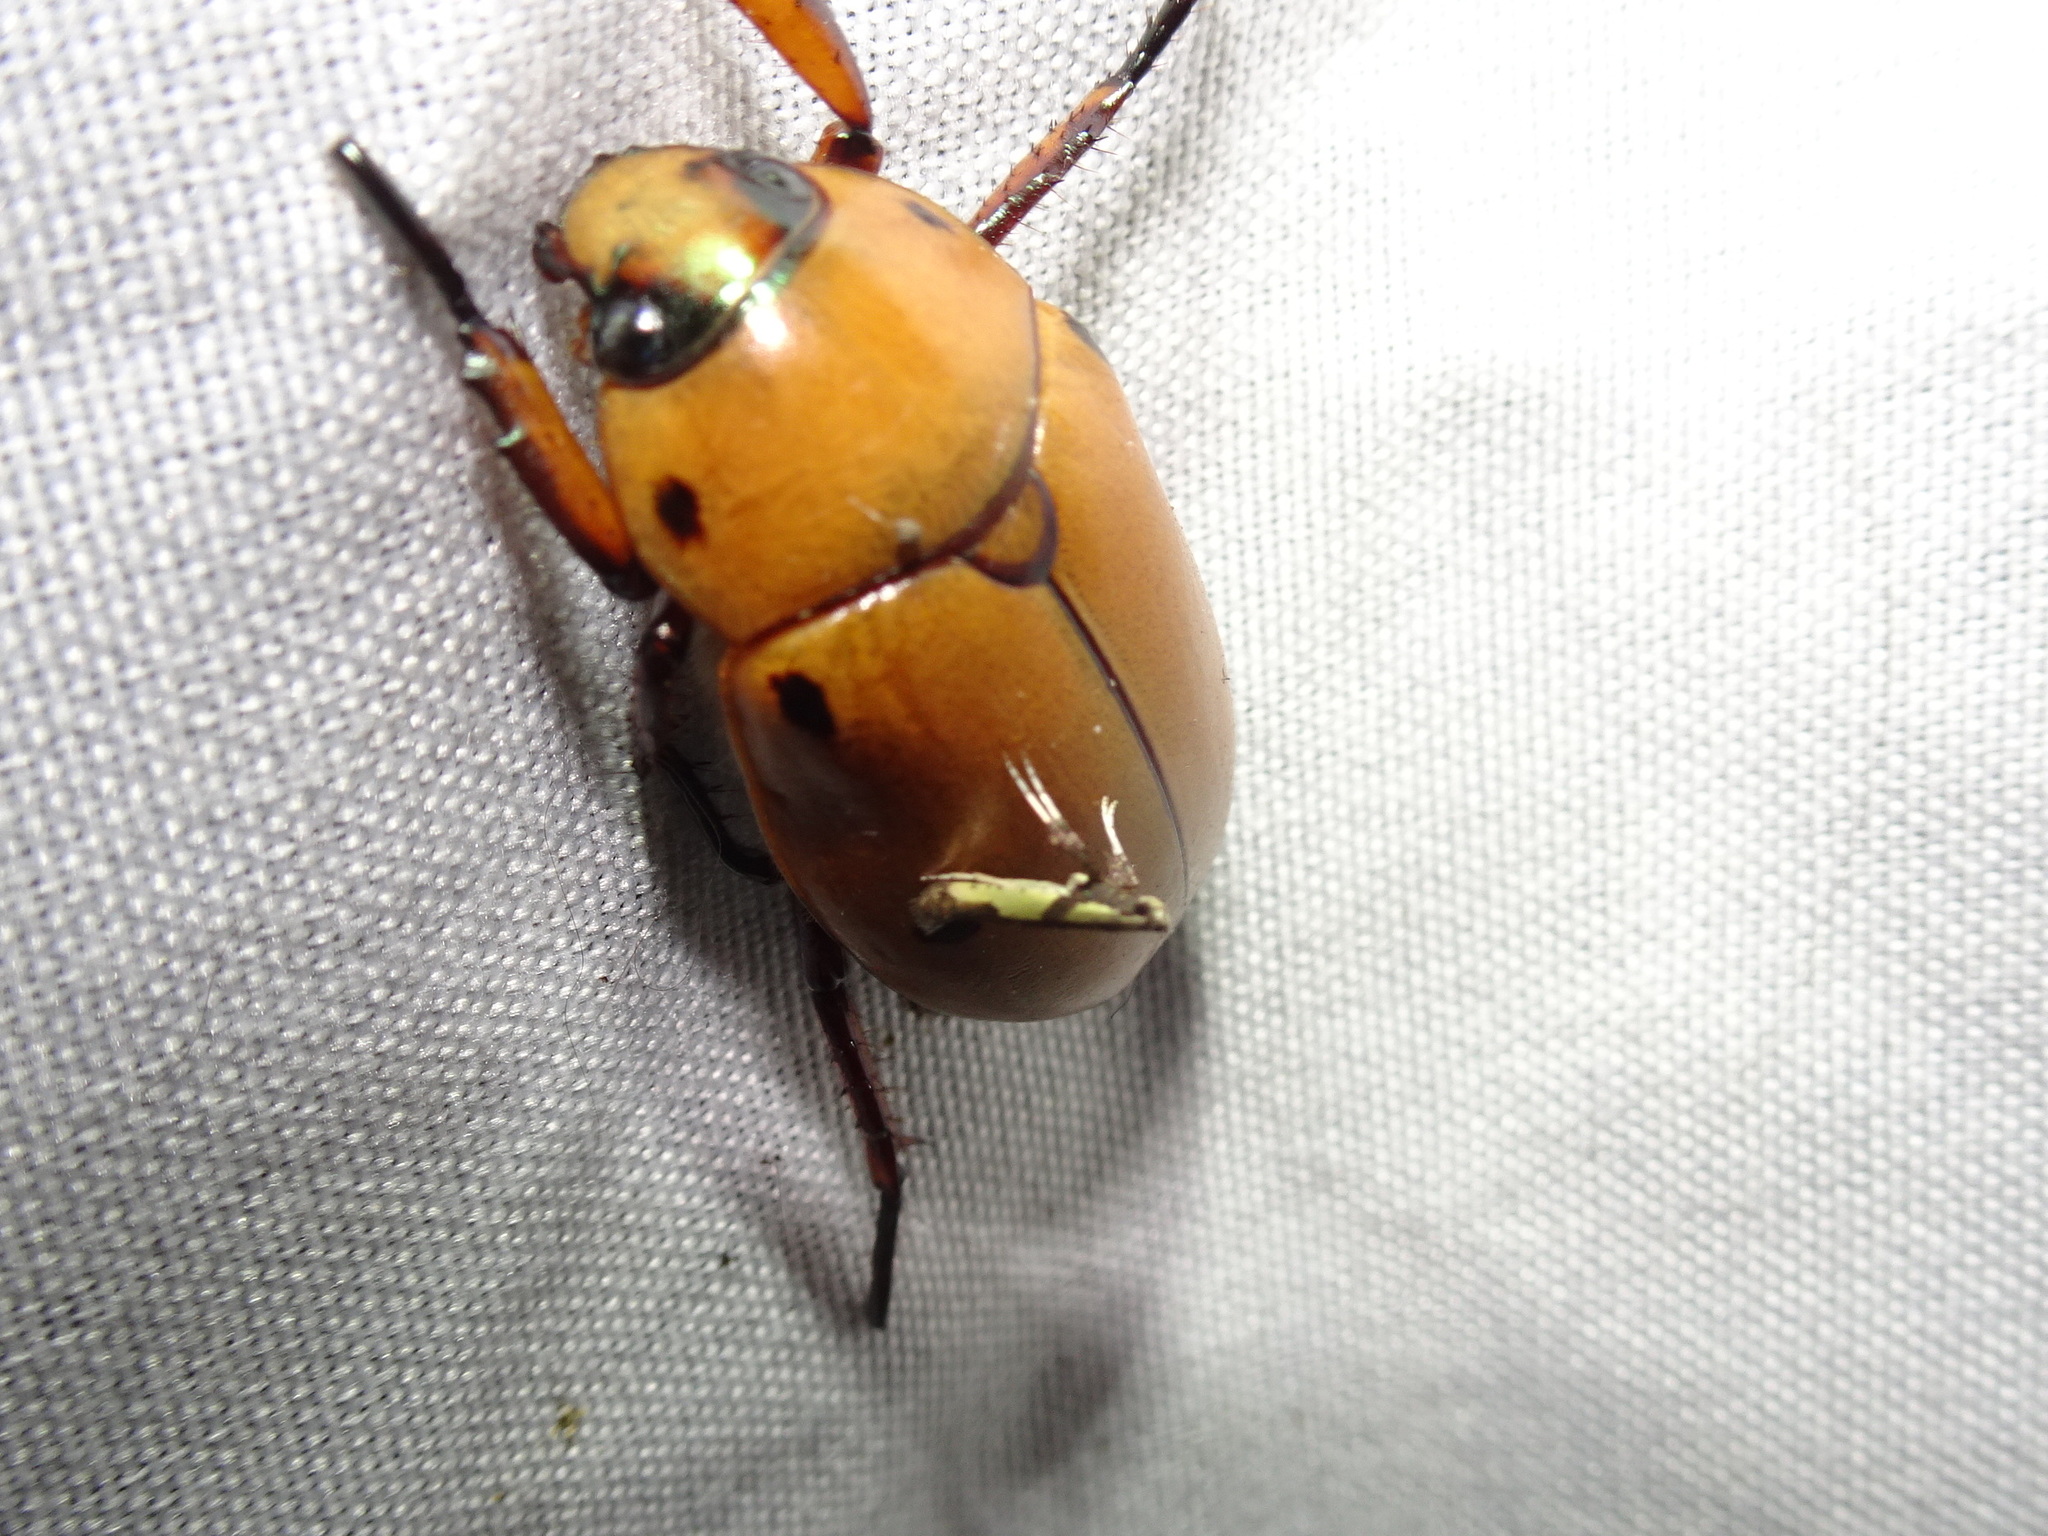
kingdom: Animalia
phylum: Arthropoda
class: Insecta
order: Lepidoptera
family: Gracillariidae
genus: Caloptilia
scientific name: Caloptilia blandella
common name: Walnut caloptilia moth
